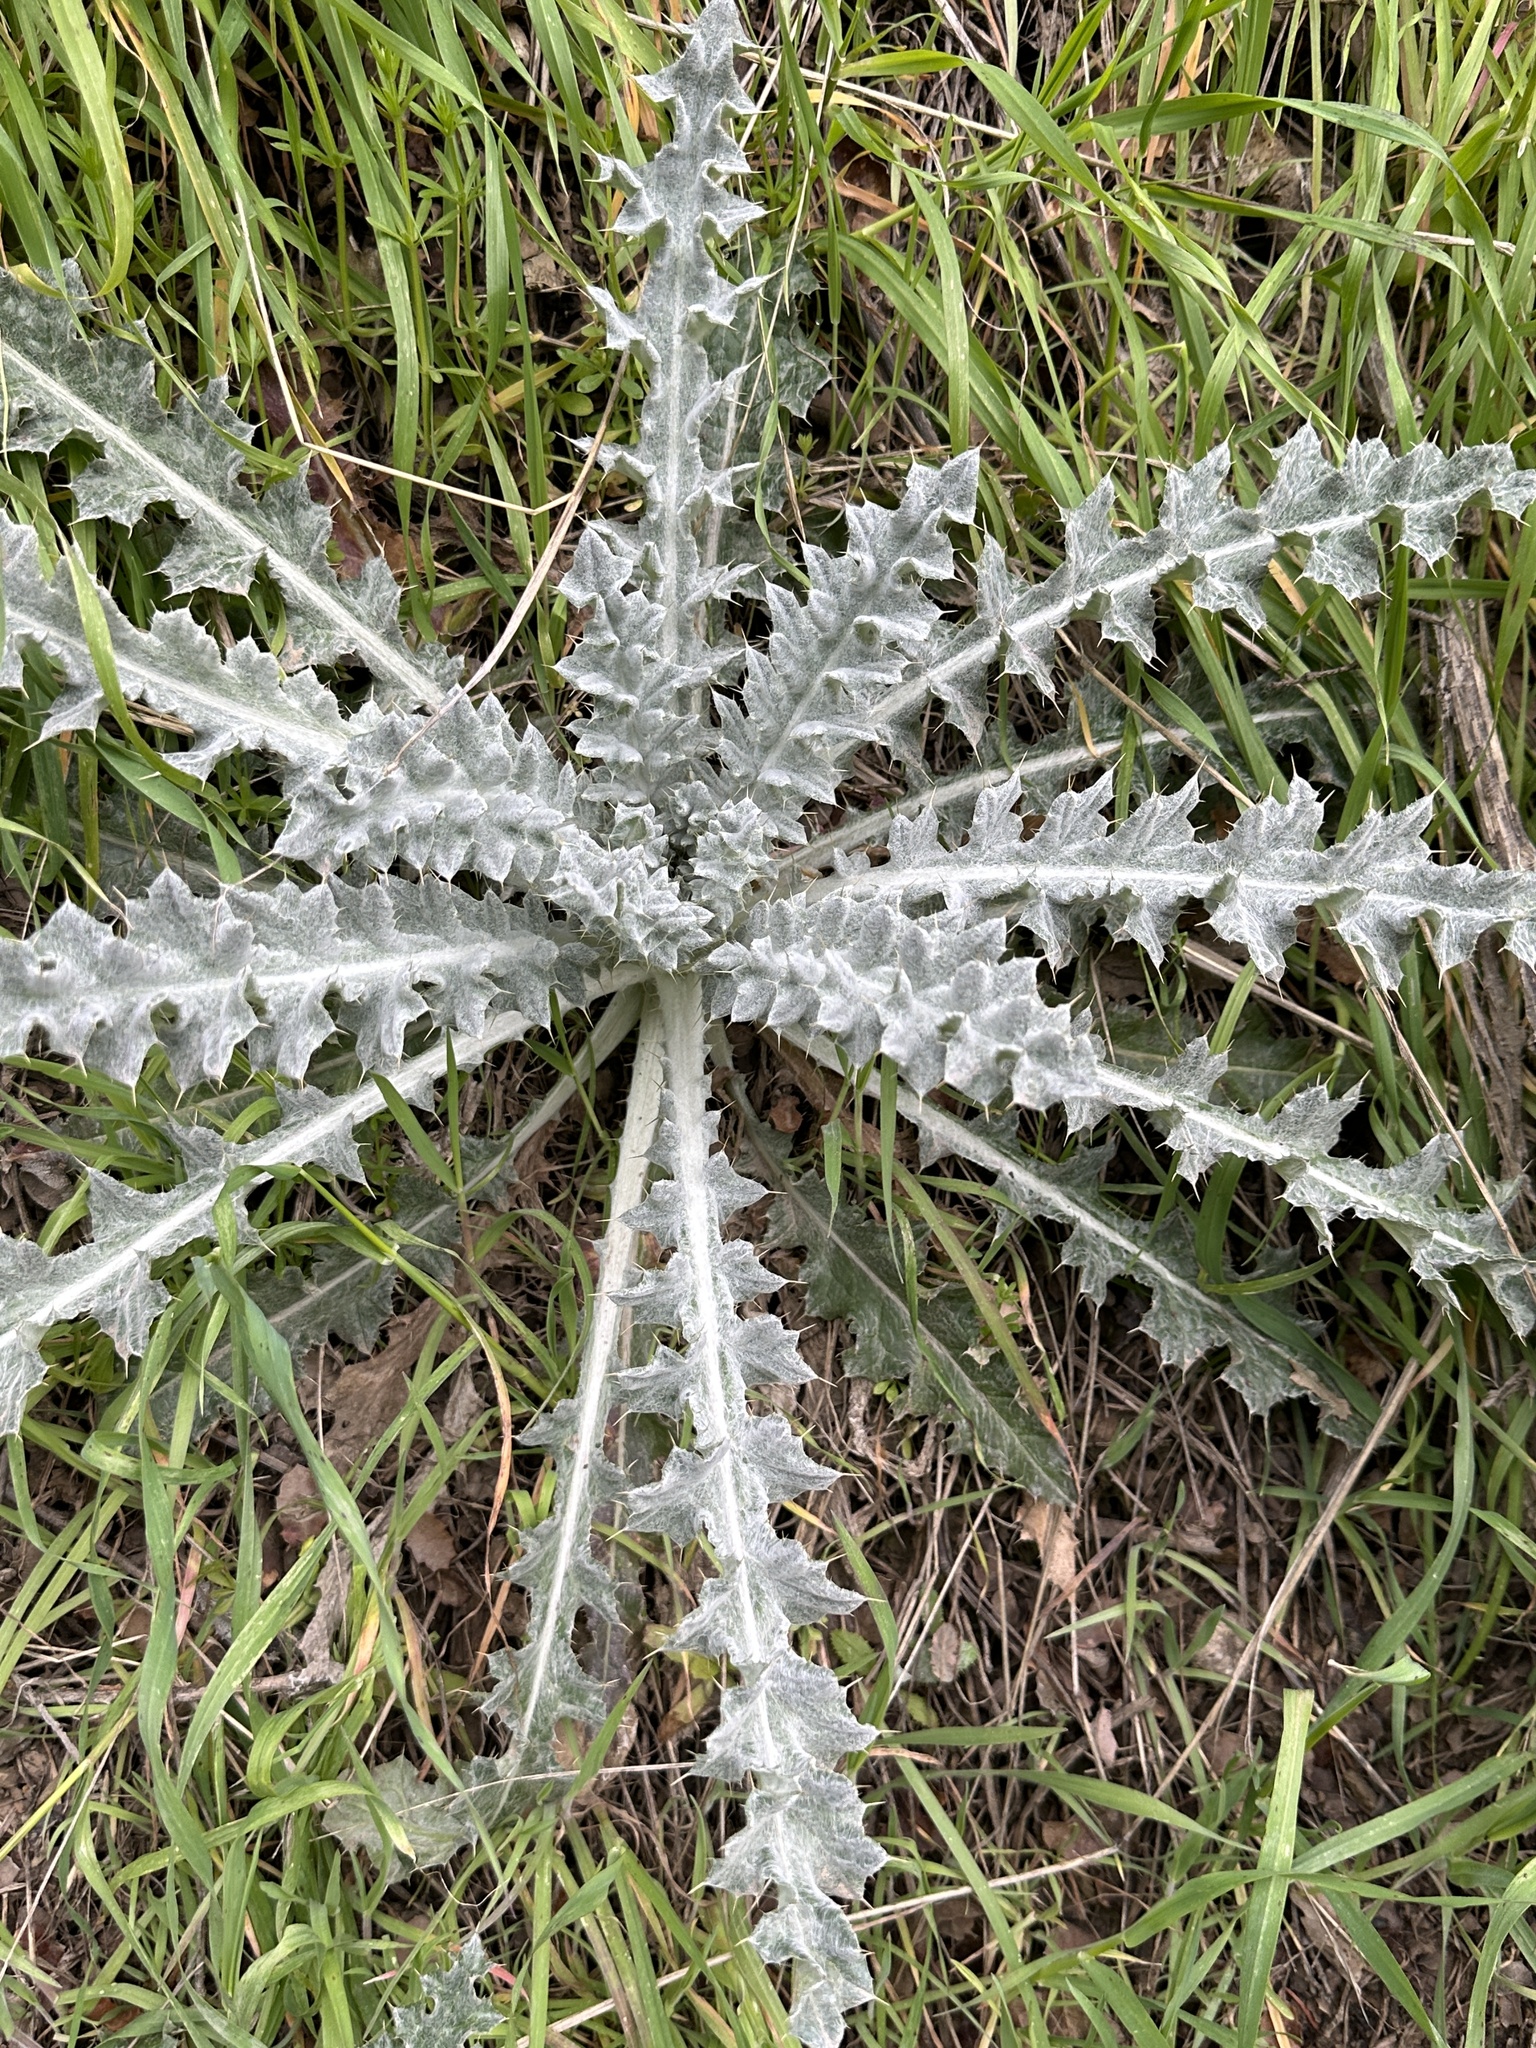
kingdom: Plantae
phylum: Tracheophyta
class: Magnoliopsida
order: Asterales
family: Asteraceae
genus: Cirsium
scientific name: Cirsium occidentale
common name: Western thistle
